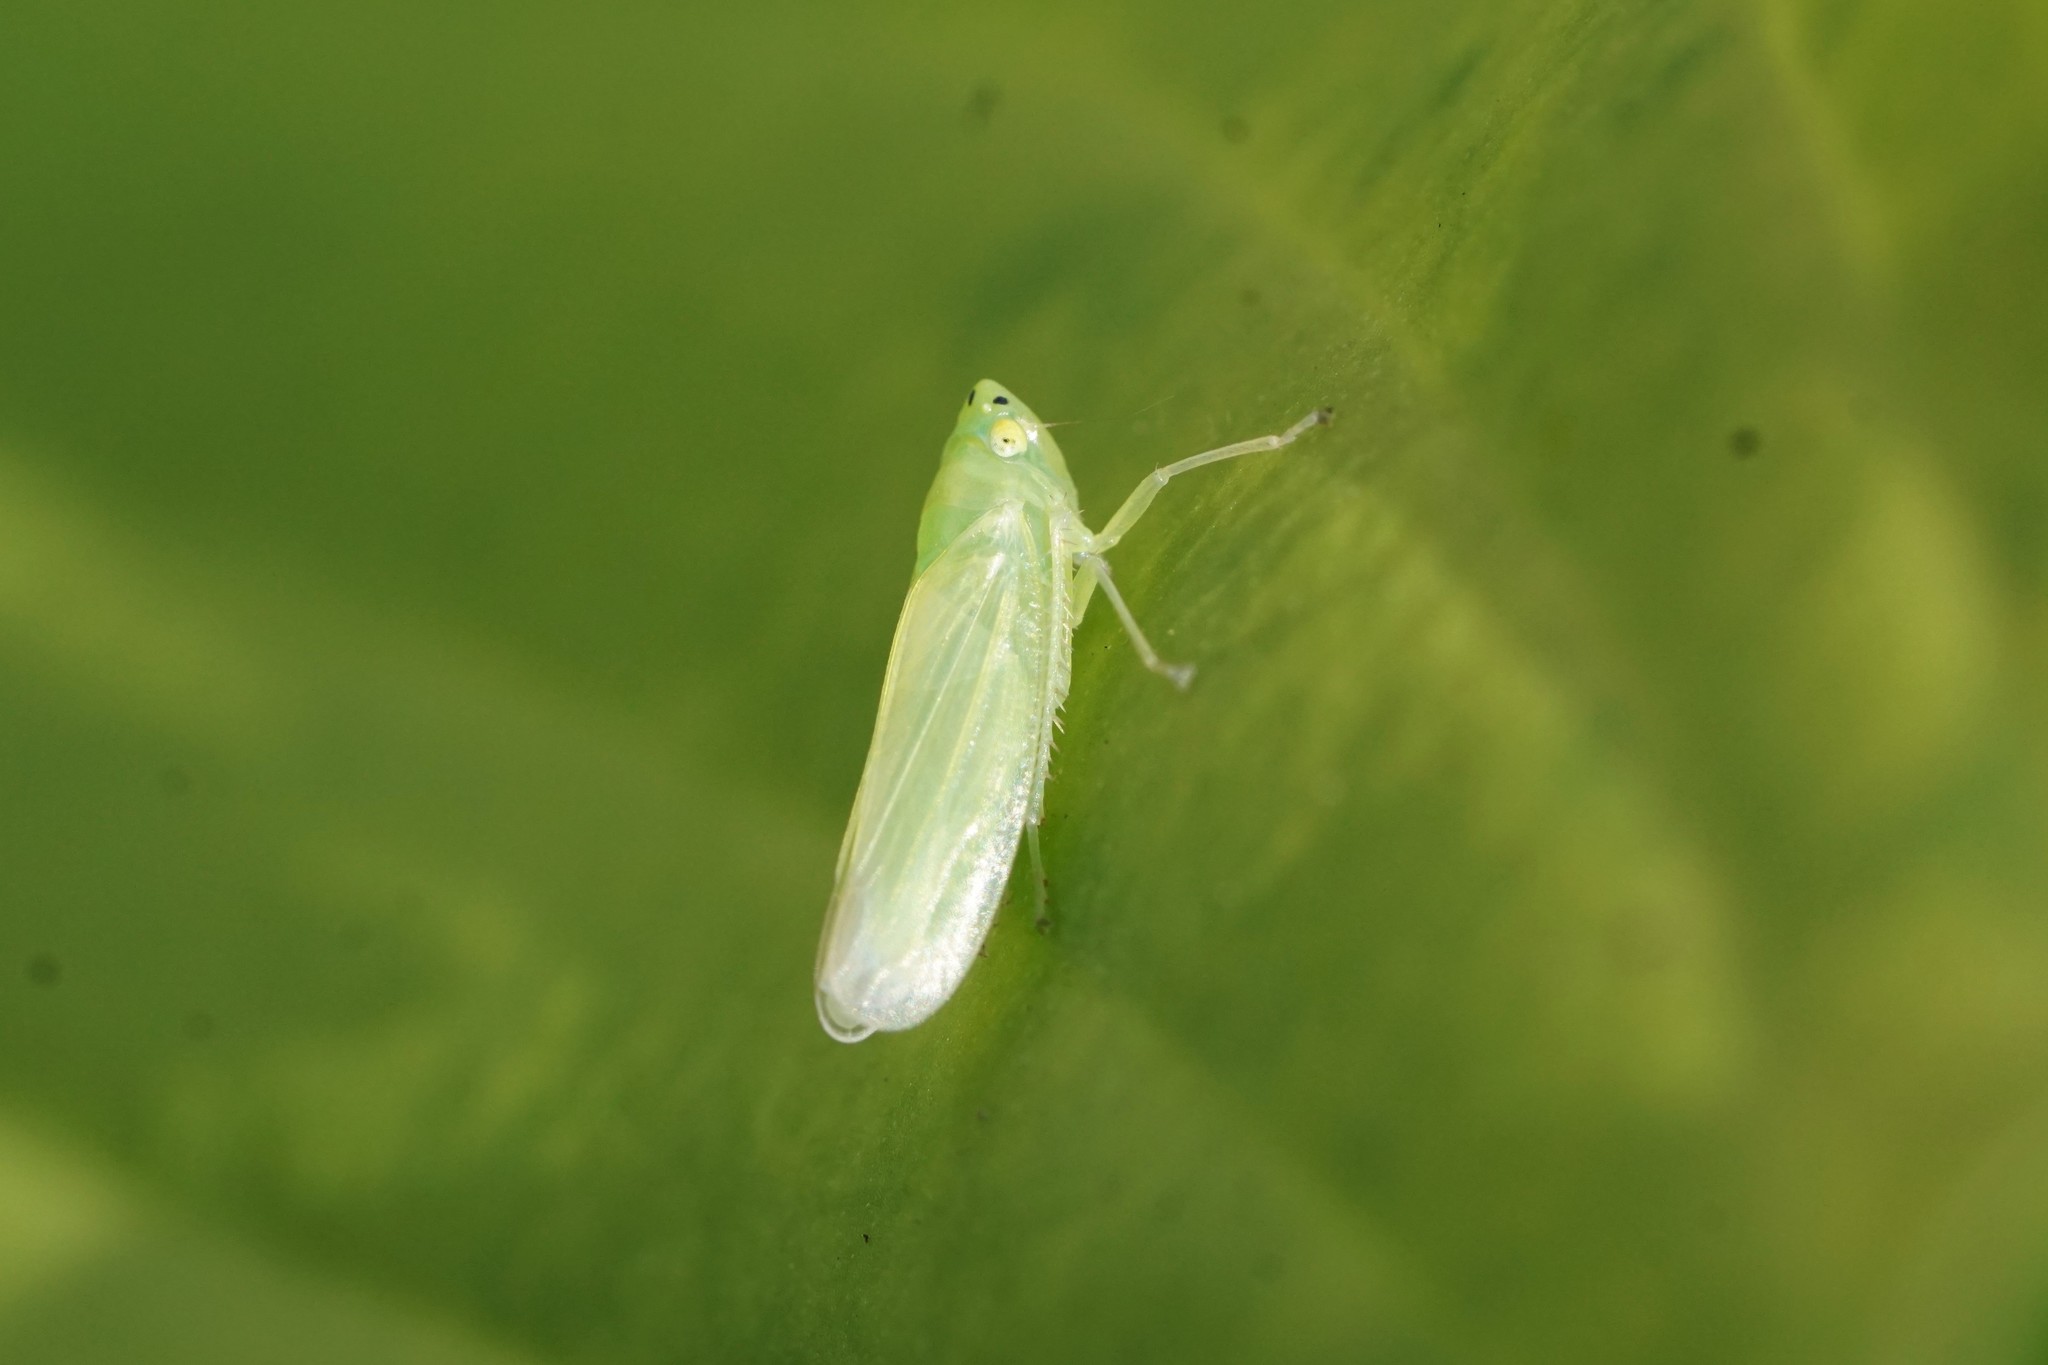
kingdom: Animalia
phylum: Arthropoda
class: Insecta
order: Hemiptera
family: Cicadellidae
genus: Pagaronia
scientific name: Pagaronia minor
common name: Leafhopper
